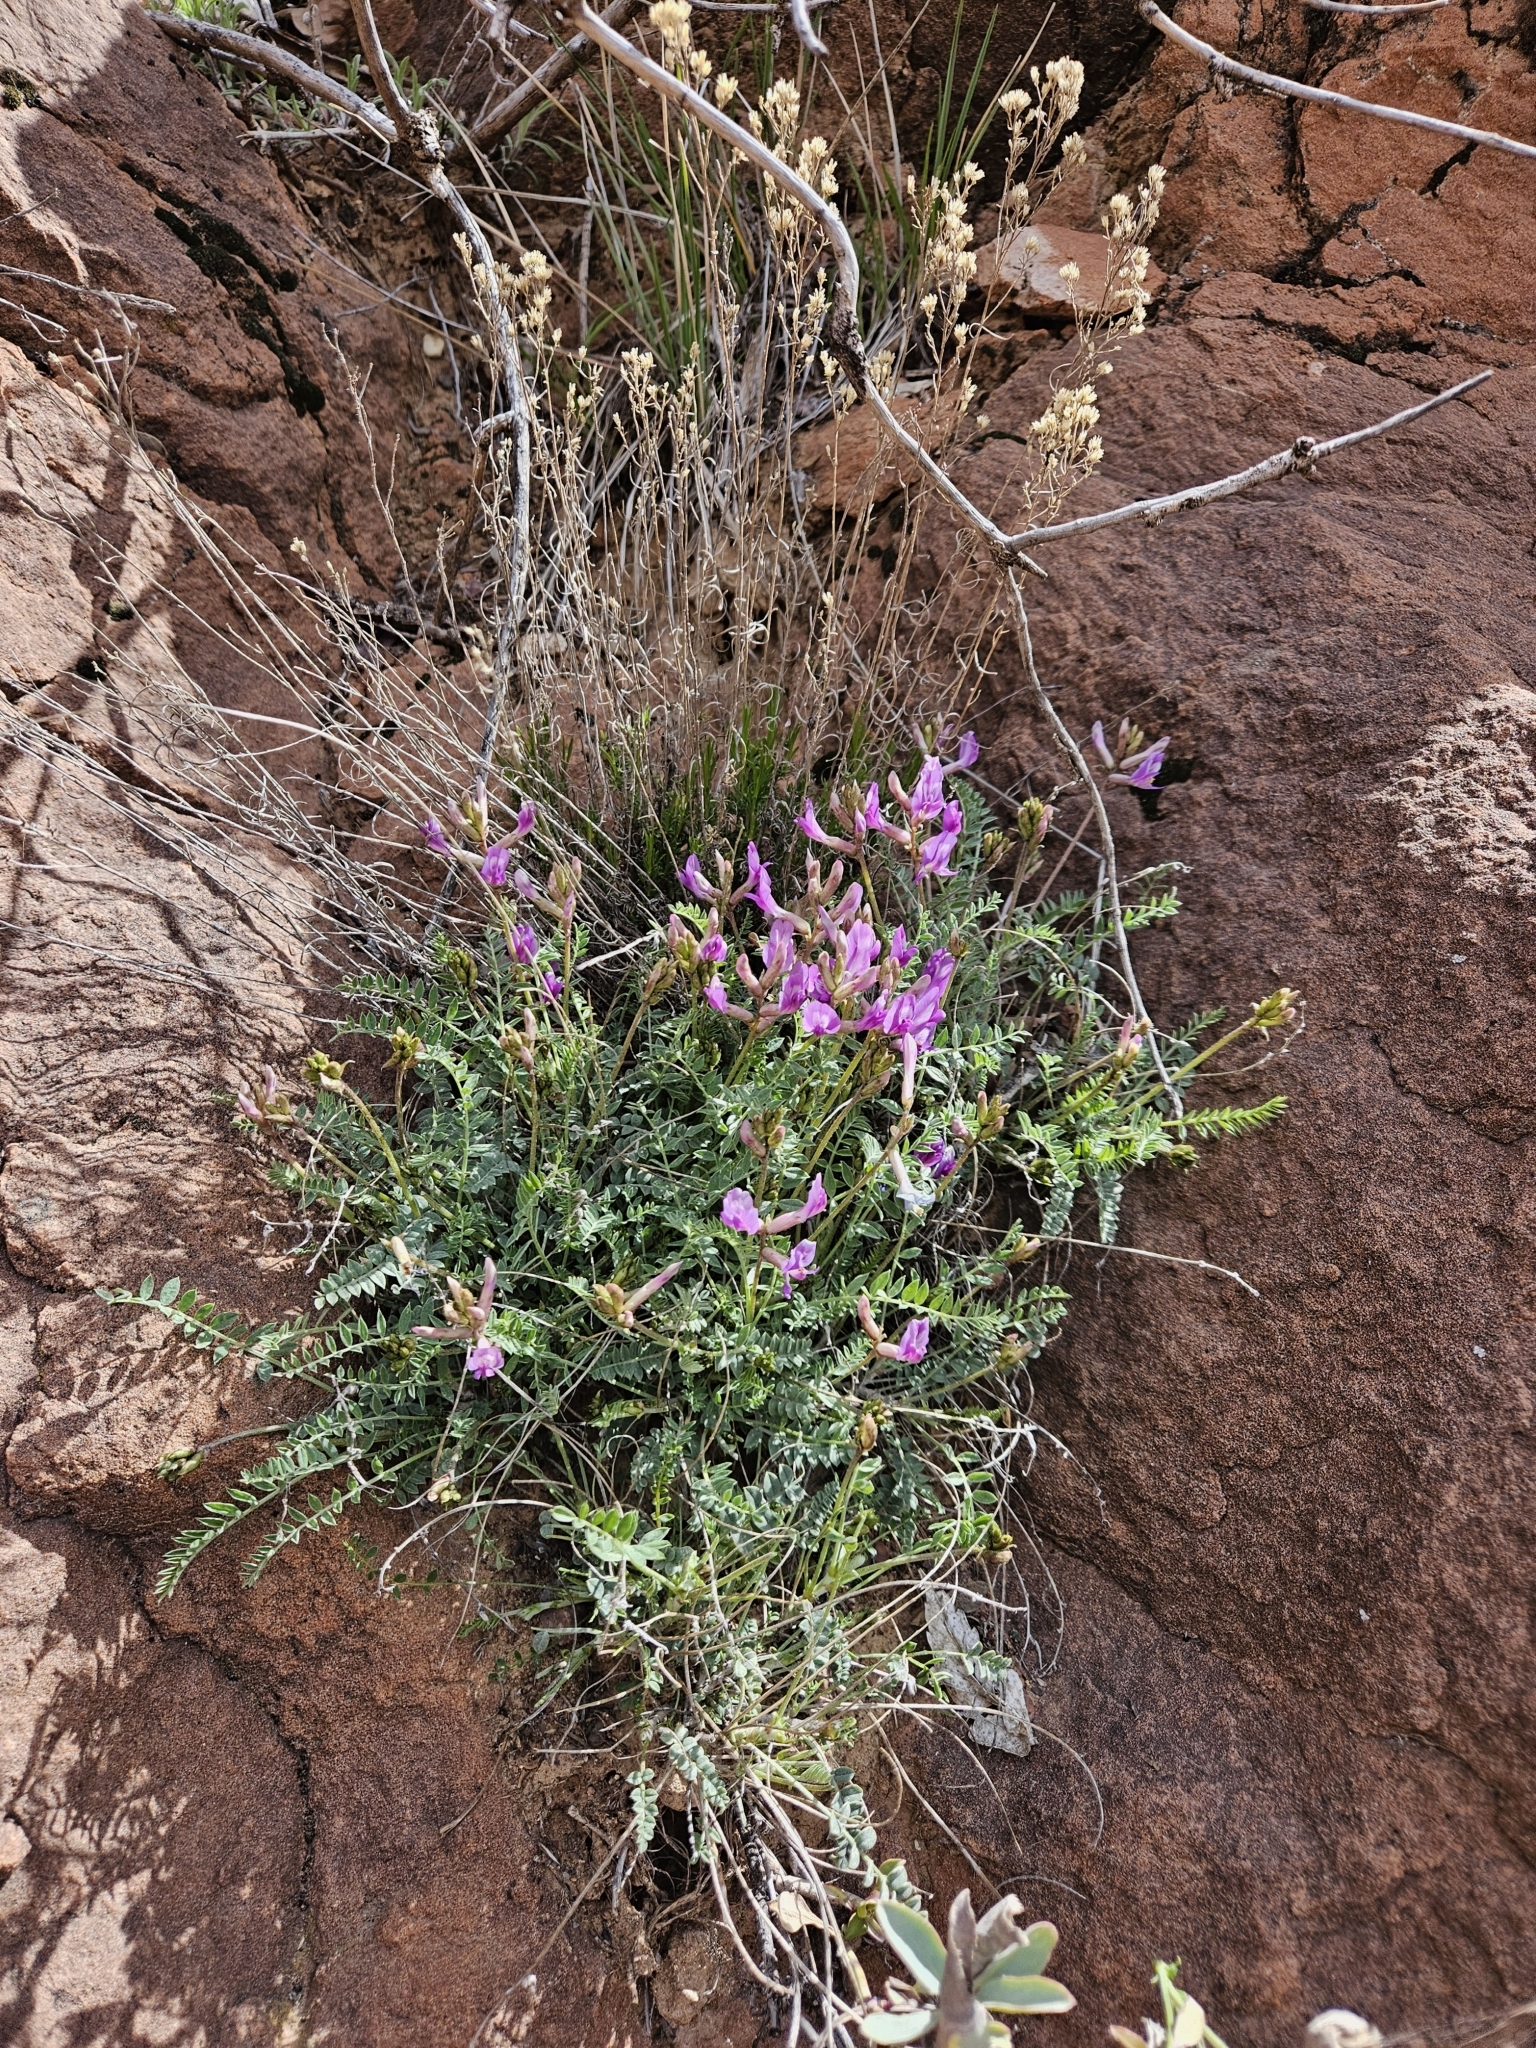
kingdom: Plantae
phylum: Tracheophyta
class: Magnoliopsida
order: Fabales
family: Fabaceae
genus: Astragalus
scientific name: Astragalus zionis
